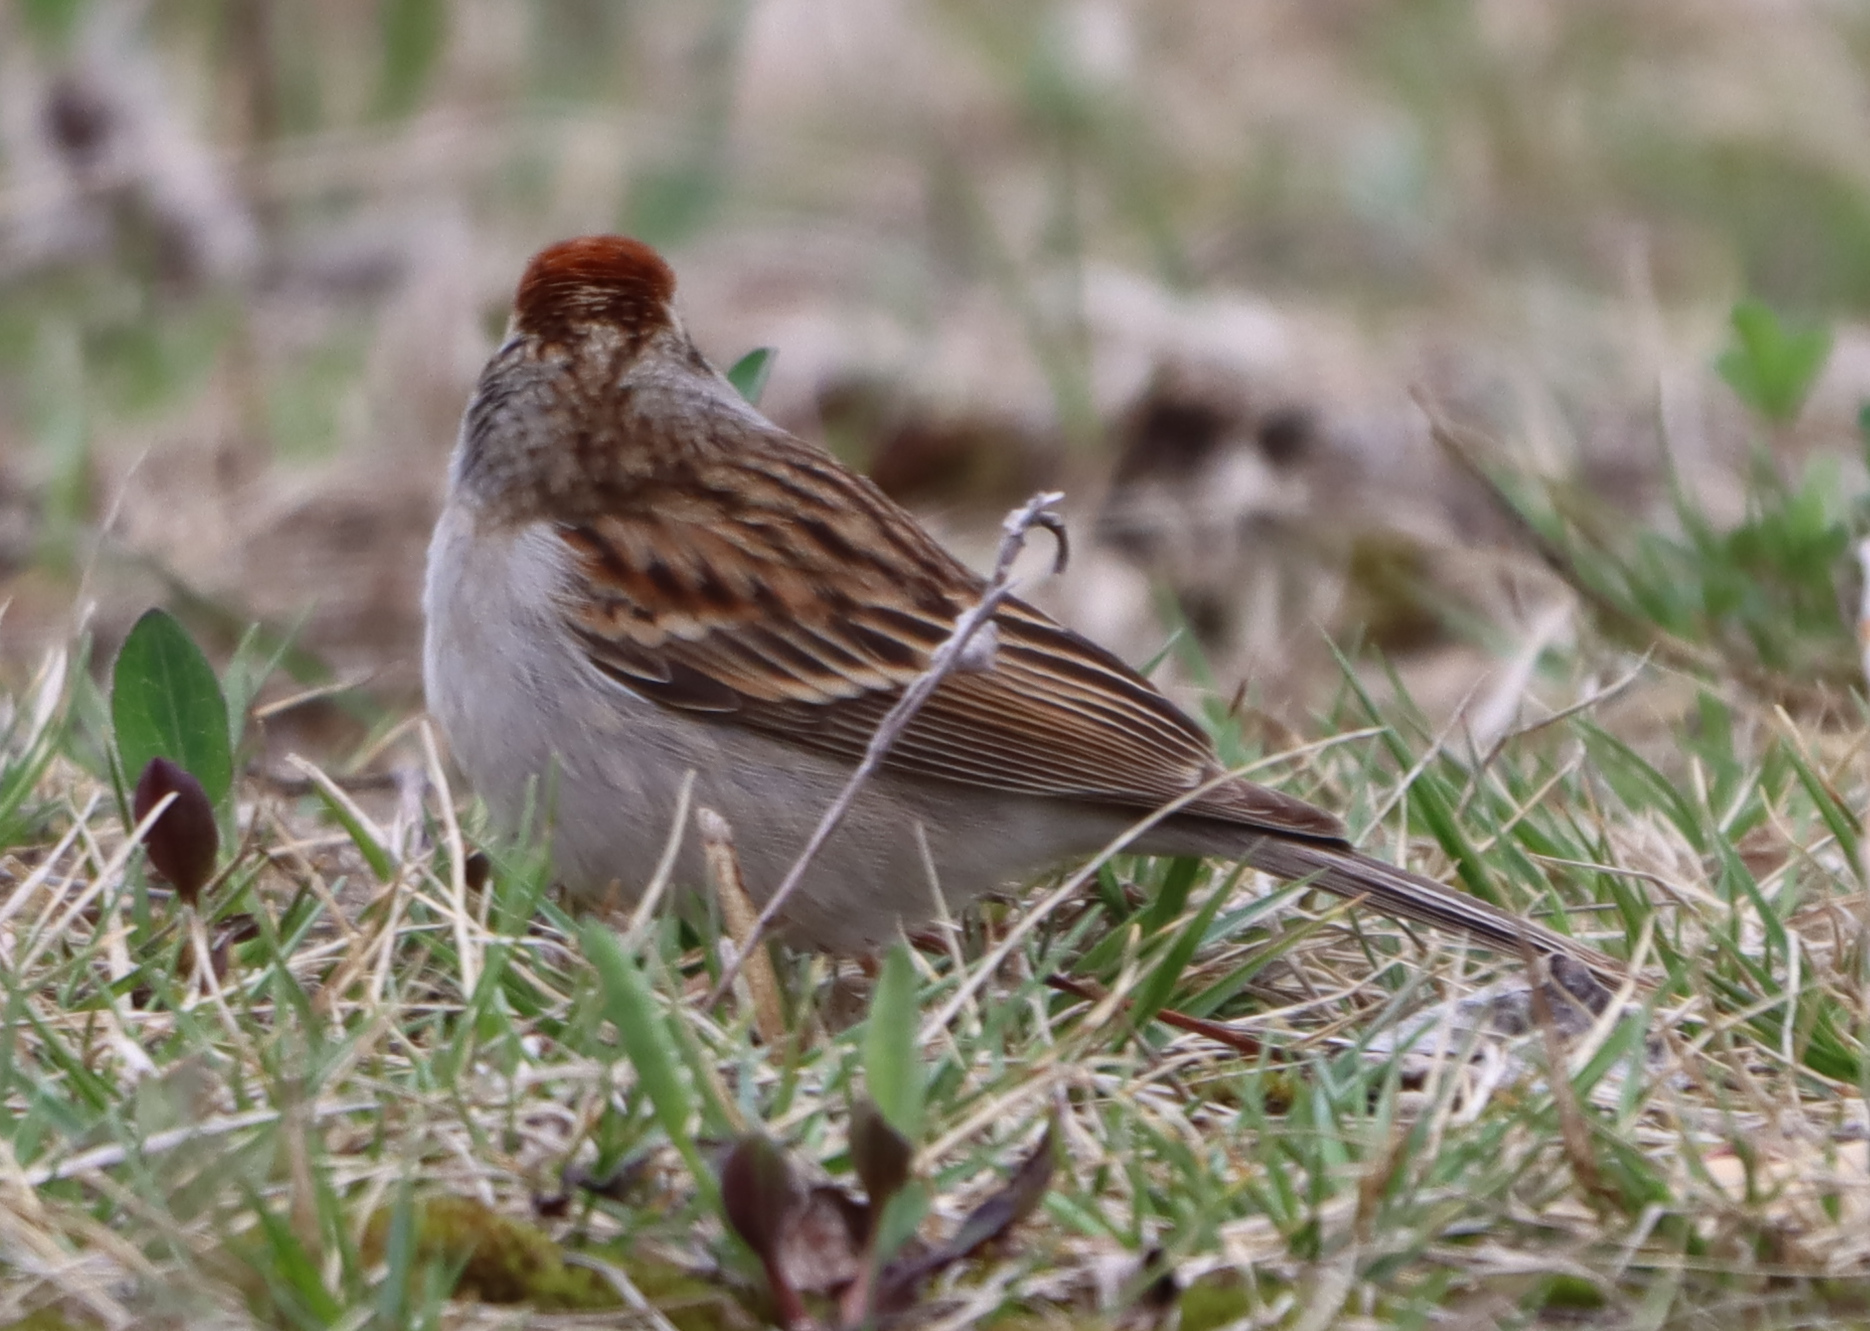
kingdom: Animalia
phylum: Chordata
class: Aves
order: Passeriformes
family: Passerellidae
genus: Spizella
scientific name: Spizella passerina
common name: Chipping sparrow
